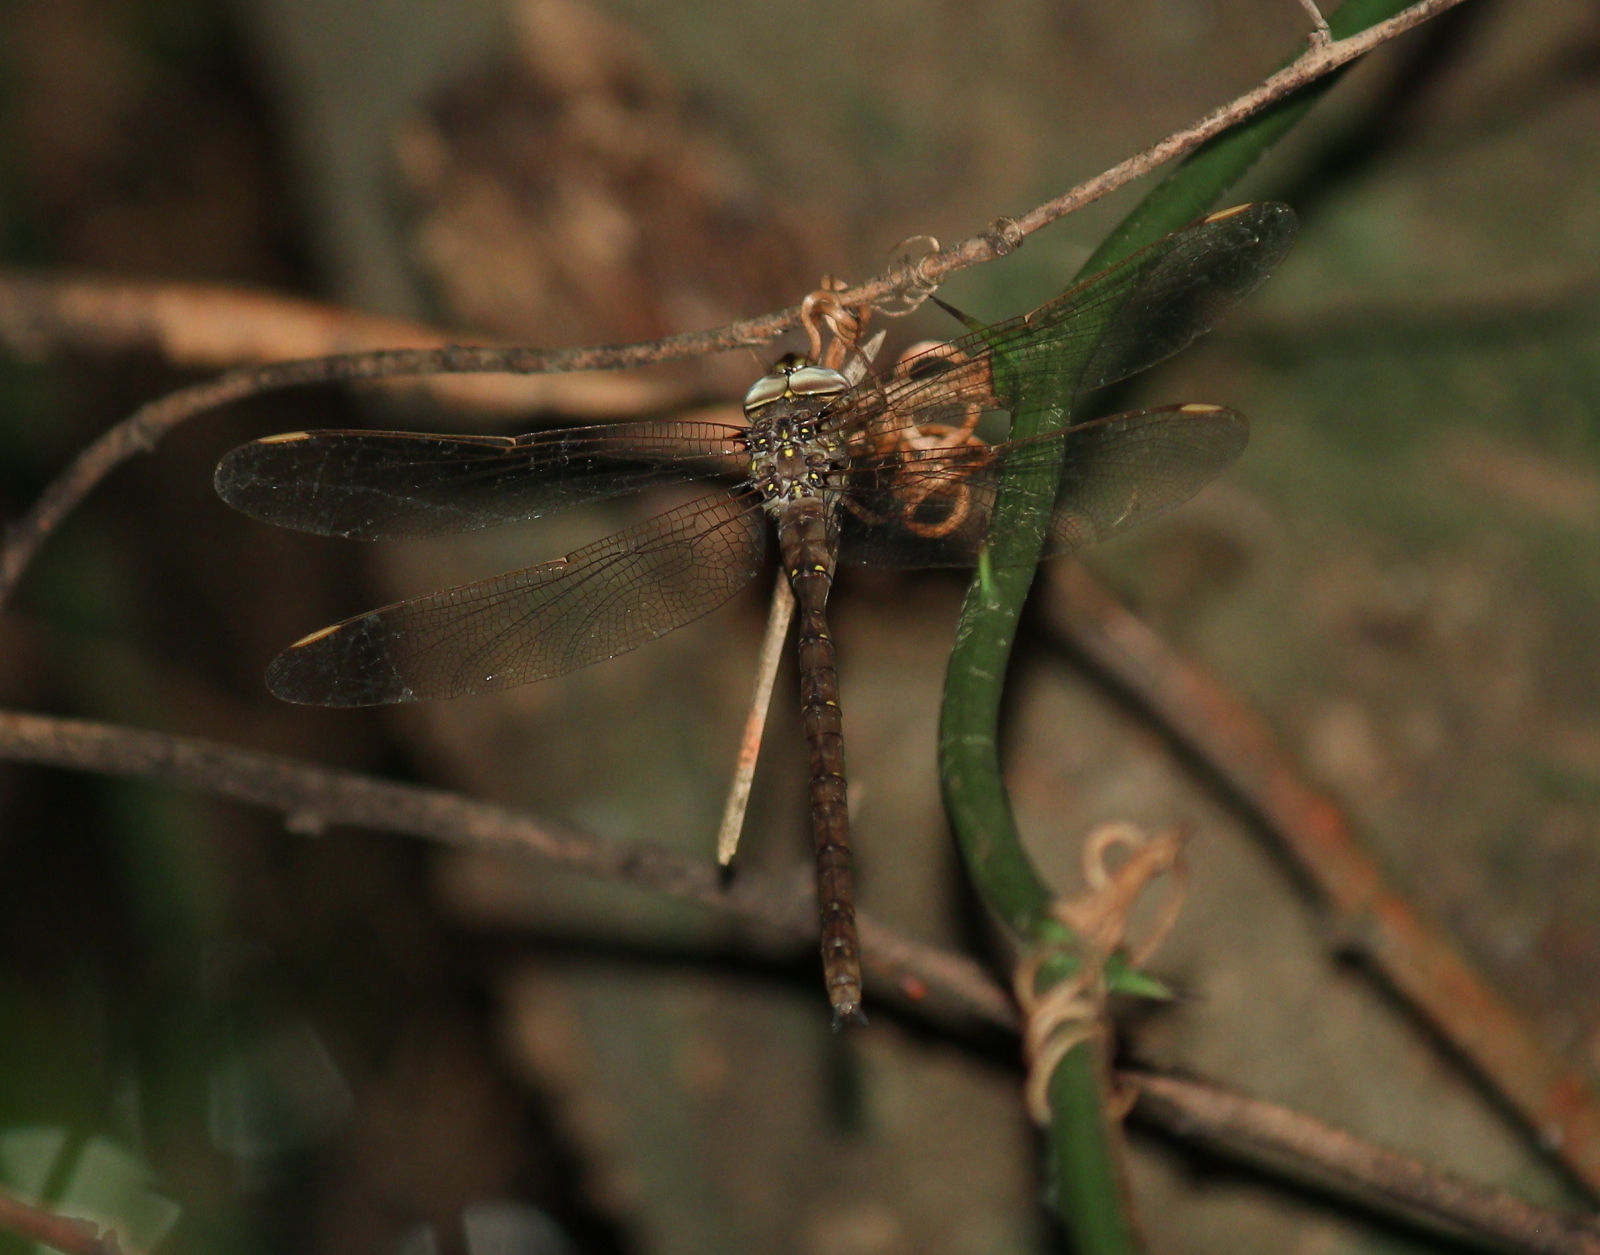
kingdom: Animalia
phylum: Arthropoda
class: Insecta
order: Odonata
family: Aeshnidae
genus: Boyeria
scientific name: Boyeria vinosa
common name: Fawn darner
